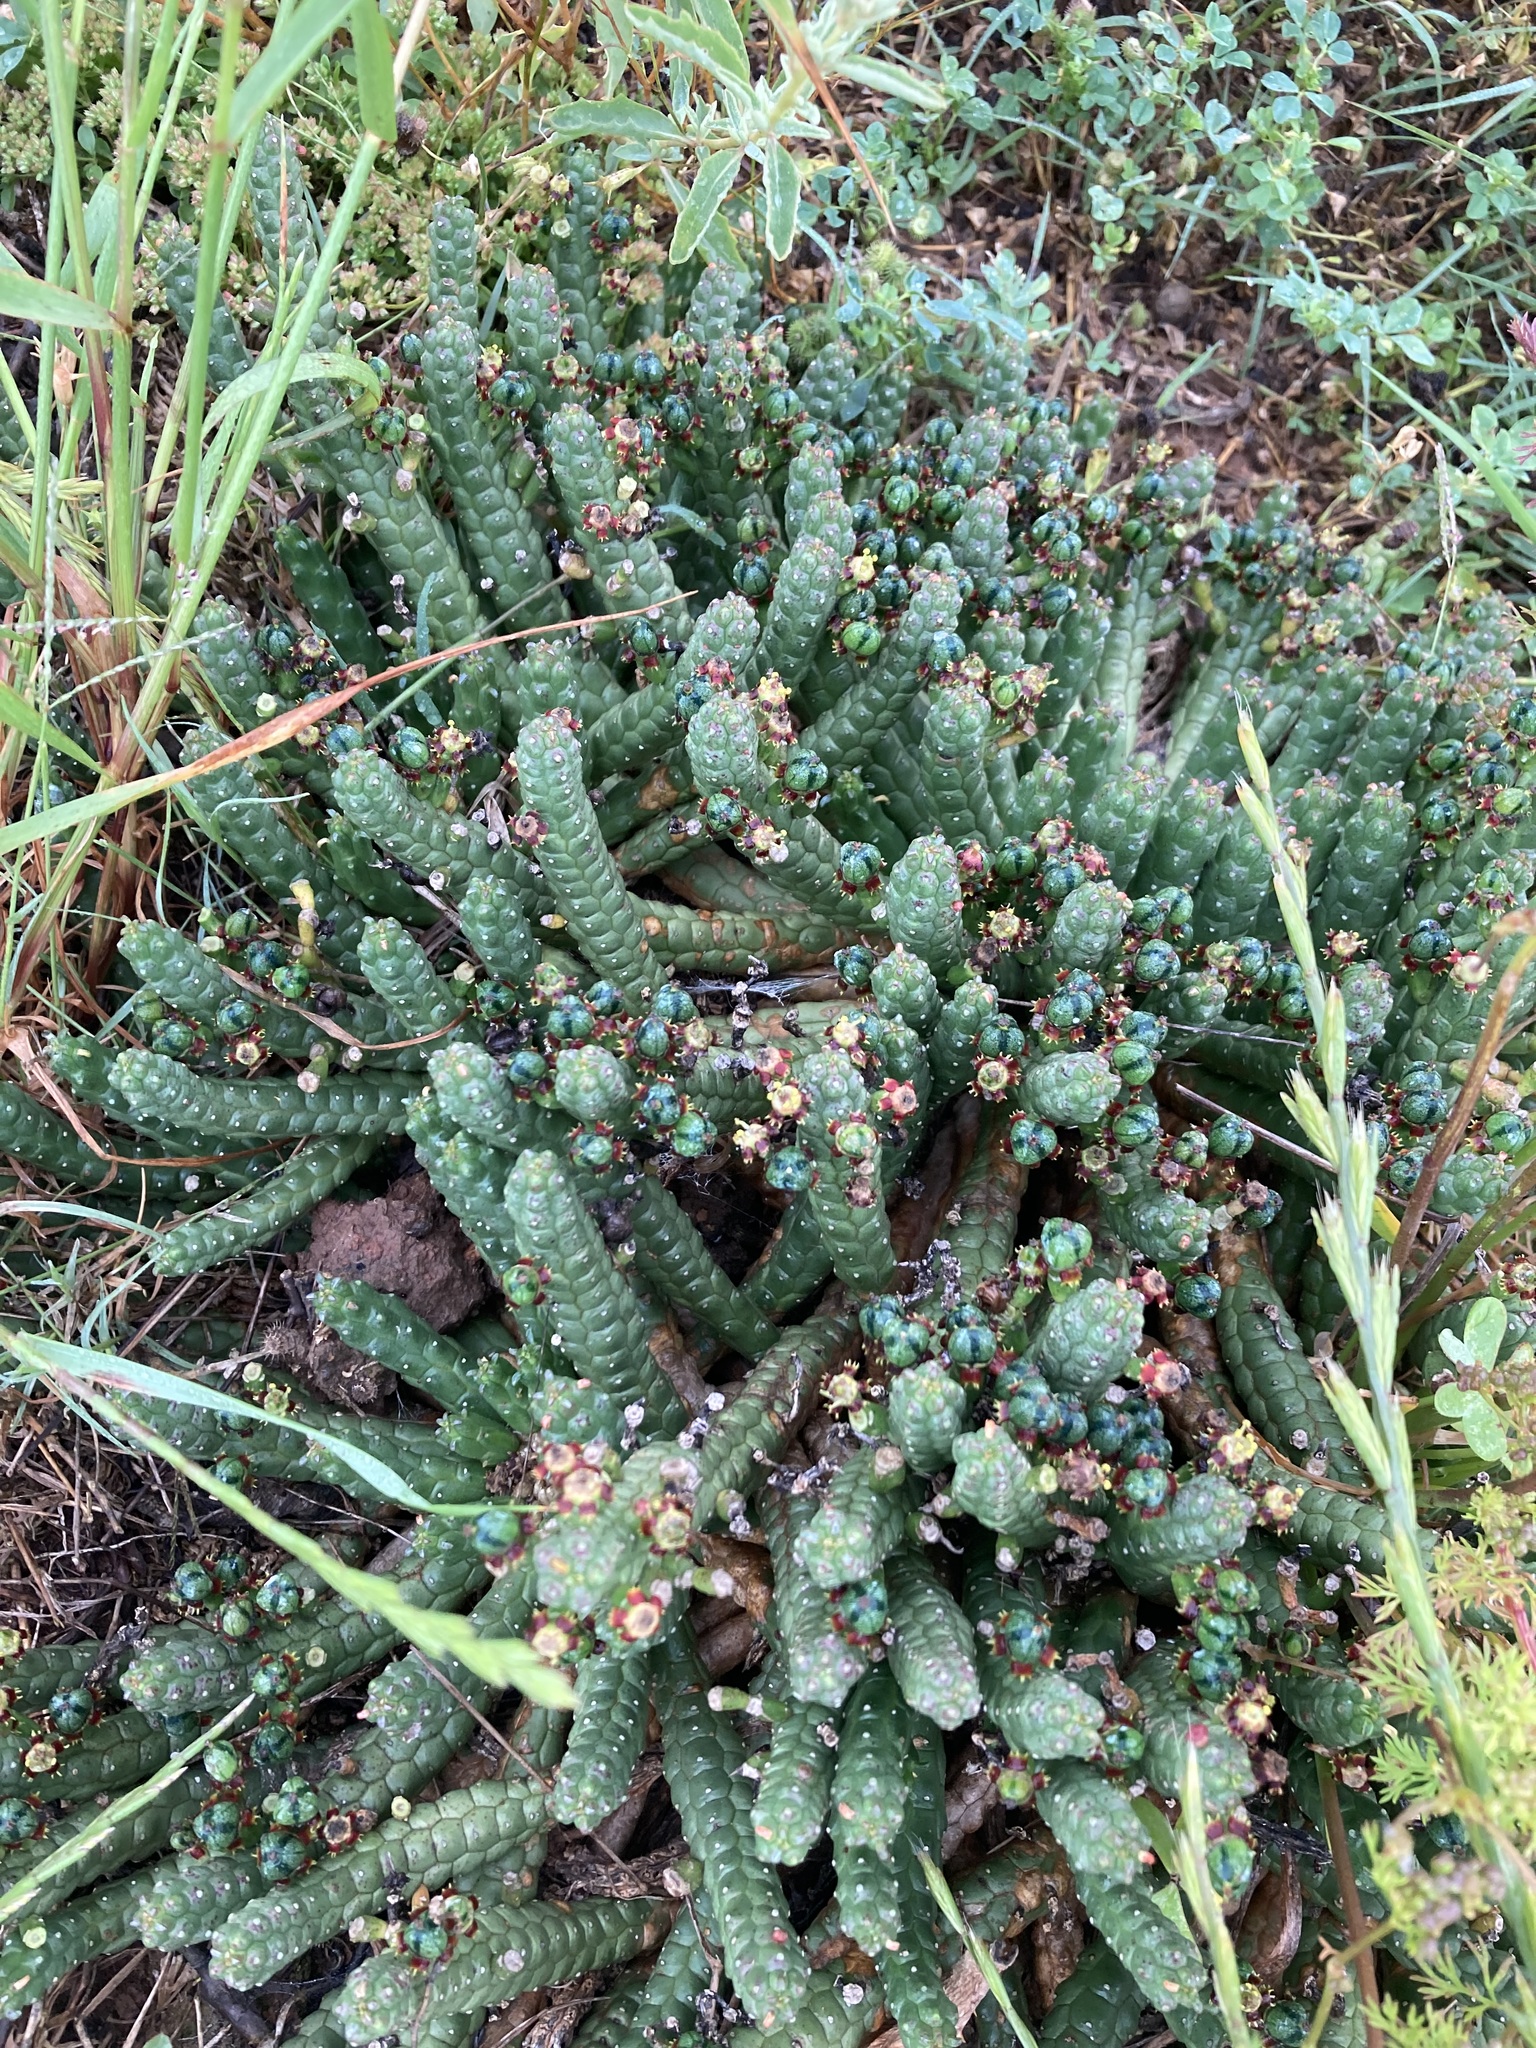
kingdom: Plantae
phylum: Tracheophyta
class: Magnoliopsida
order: Malpighiales
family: Euphorbiaceae
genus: Euphorbia
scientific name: Euphorbia audissoui
